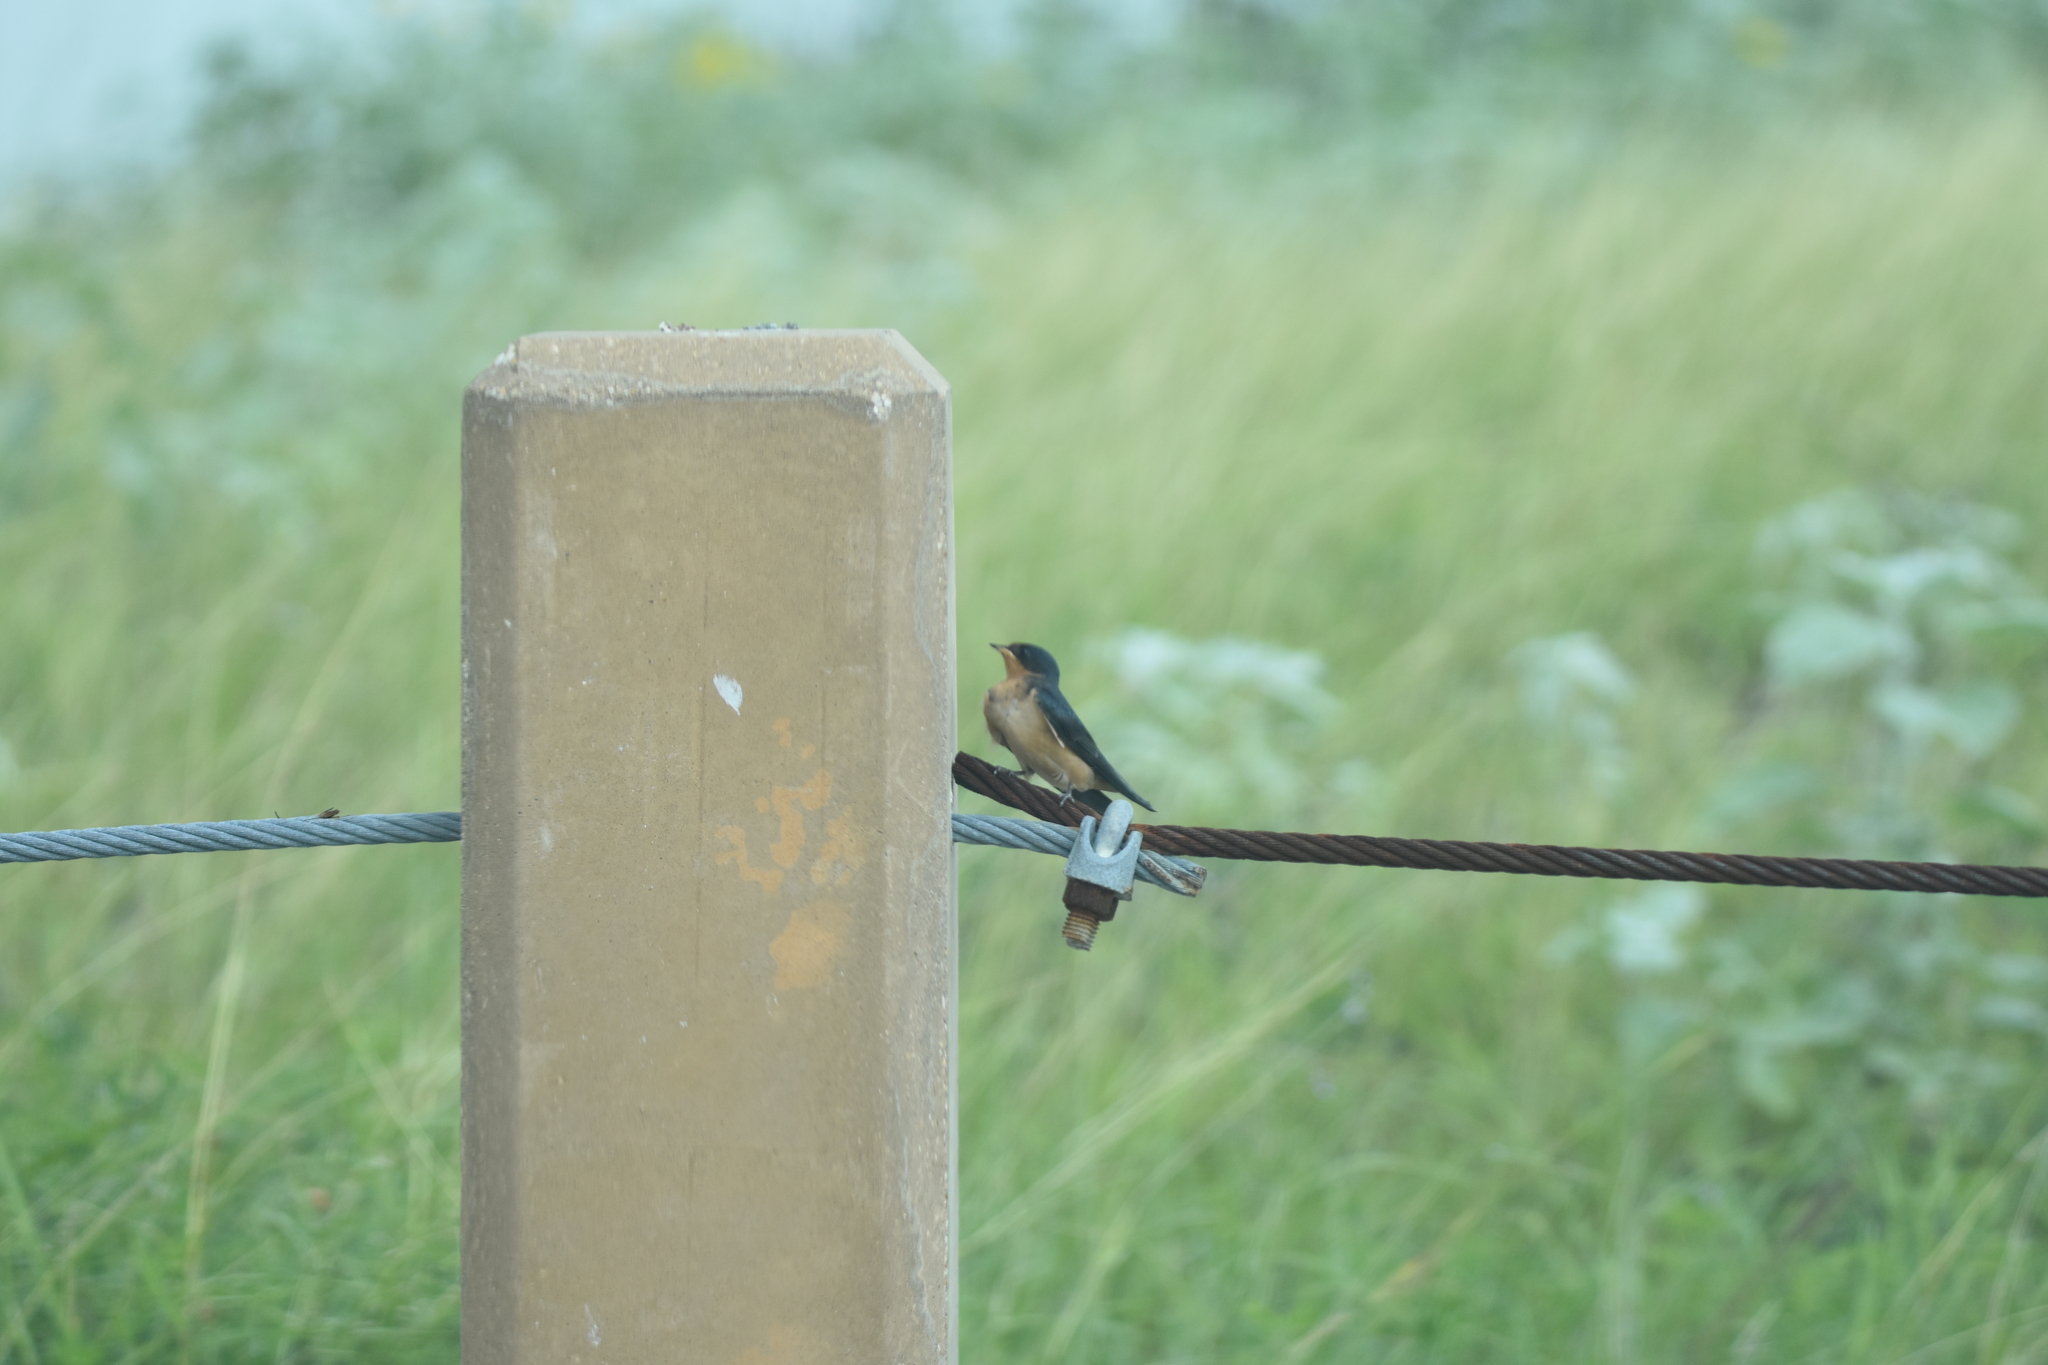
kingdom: Animalia
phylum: Chordata
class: Aves
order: Passeriformes
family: Hirundinidae
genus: Hirundo
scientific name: Hirundo rustica
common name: Barn swallow
